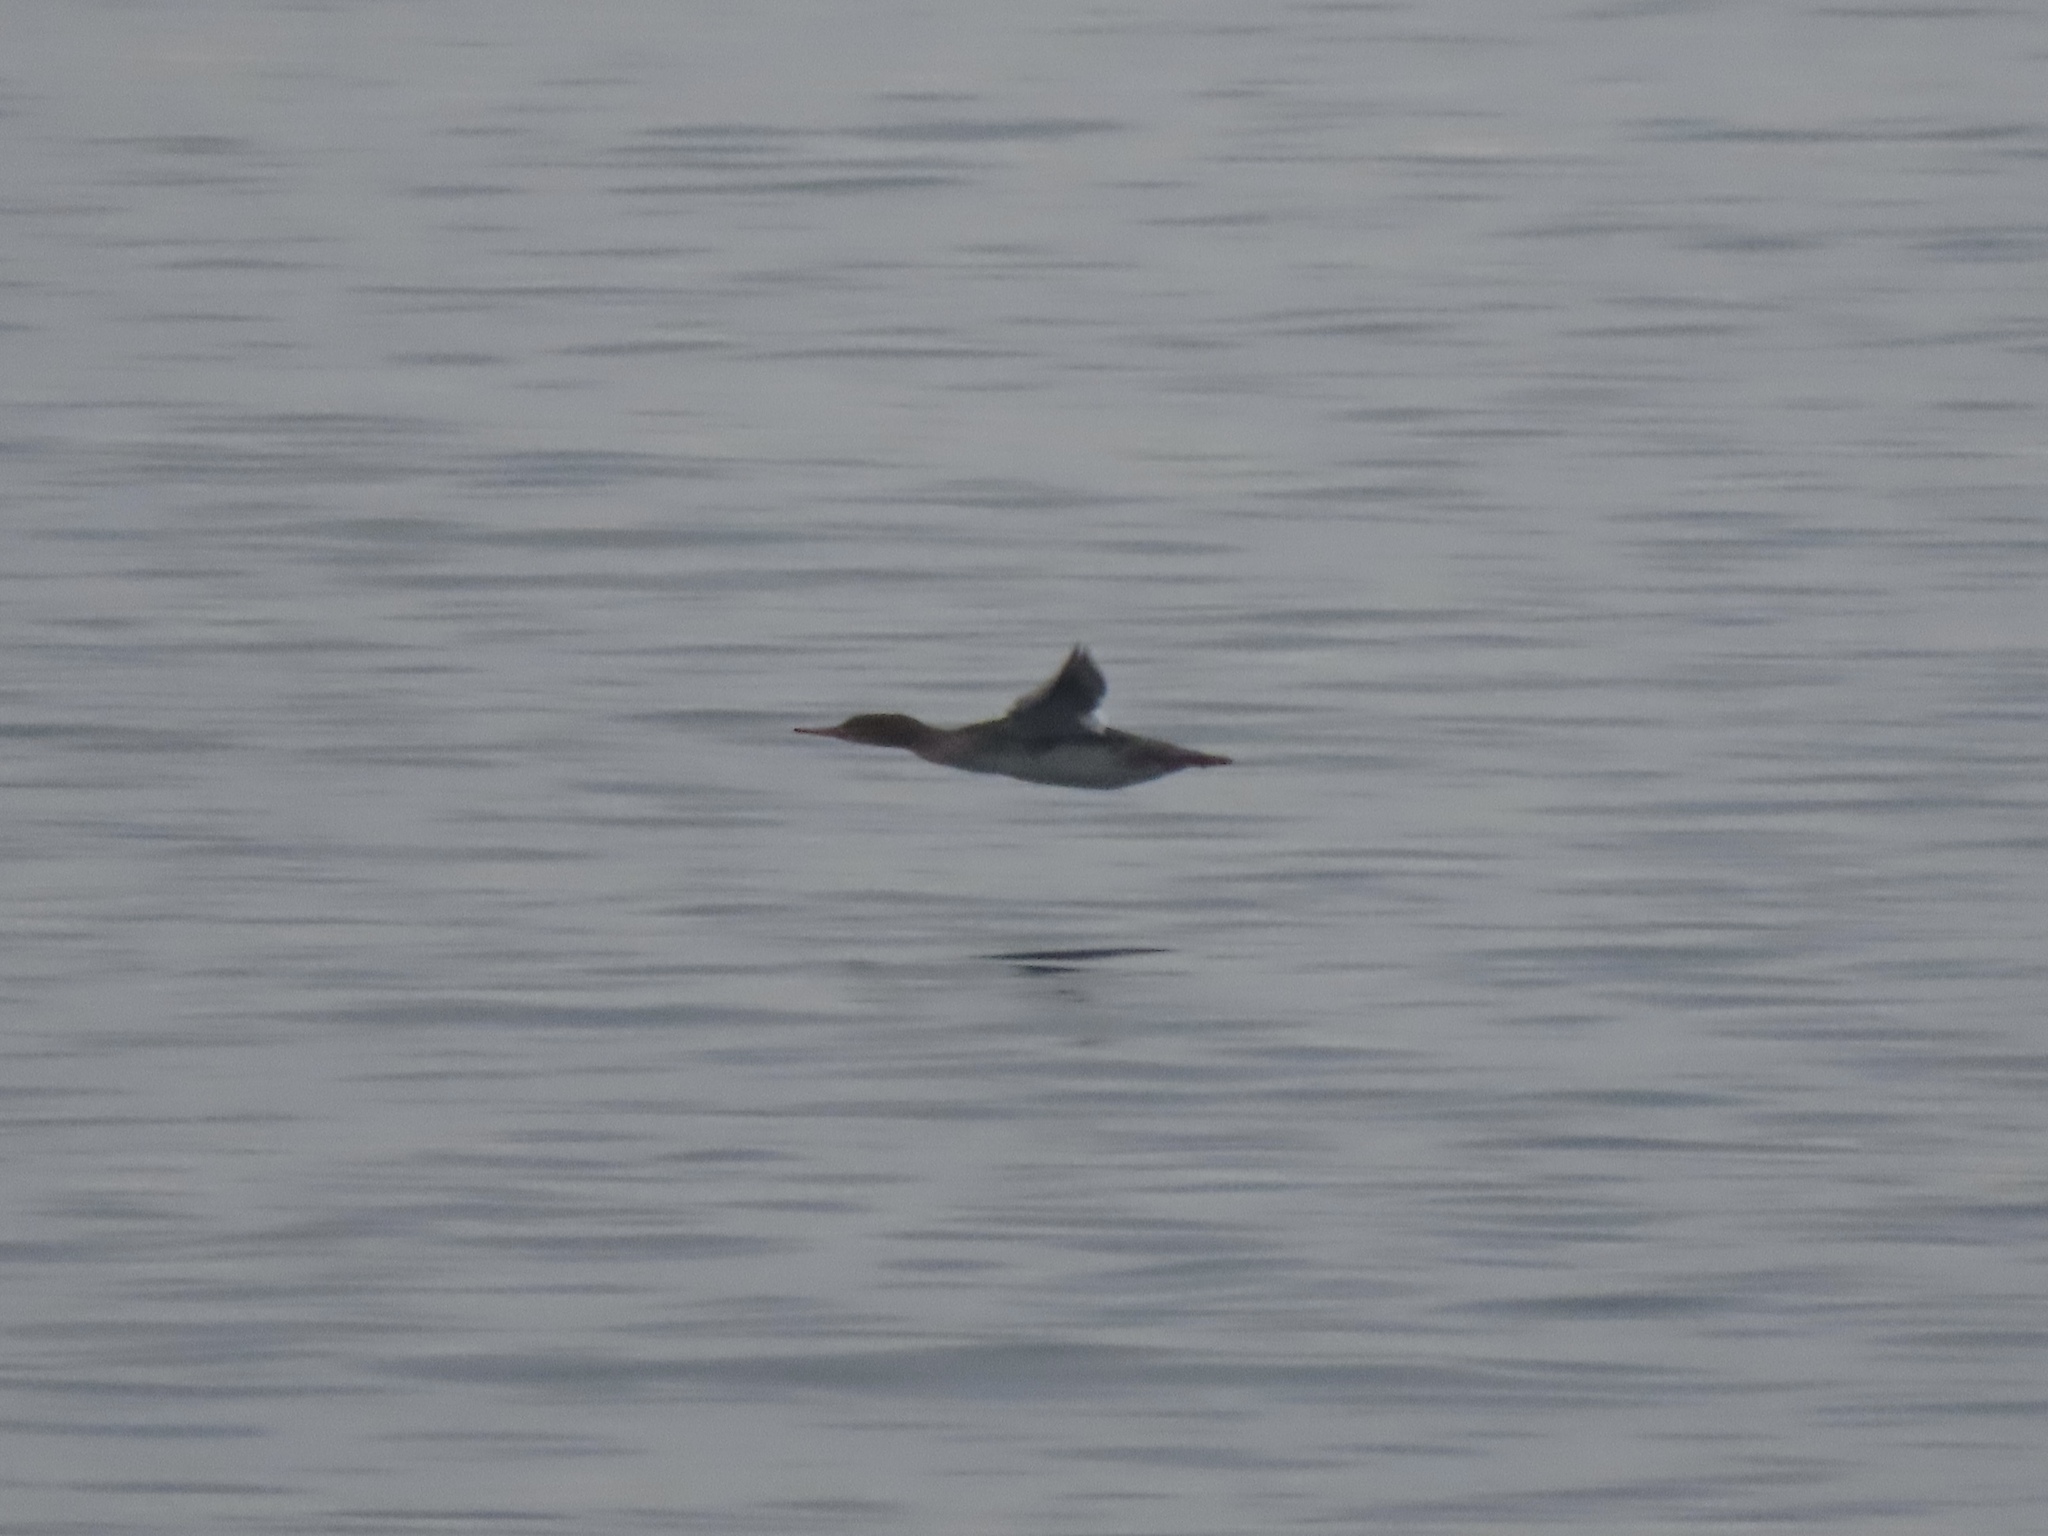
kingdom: Animalia
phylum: Chordata
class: Aves
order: Anseriformes
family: Anatidae
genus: Mergus
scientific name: Mergus serrator
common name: Red-breasted merganser
